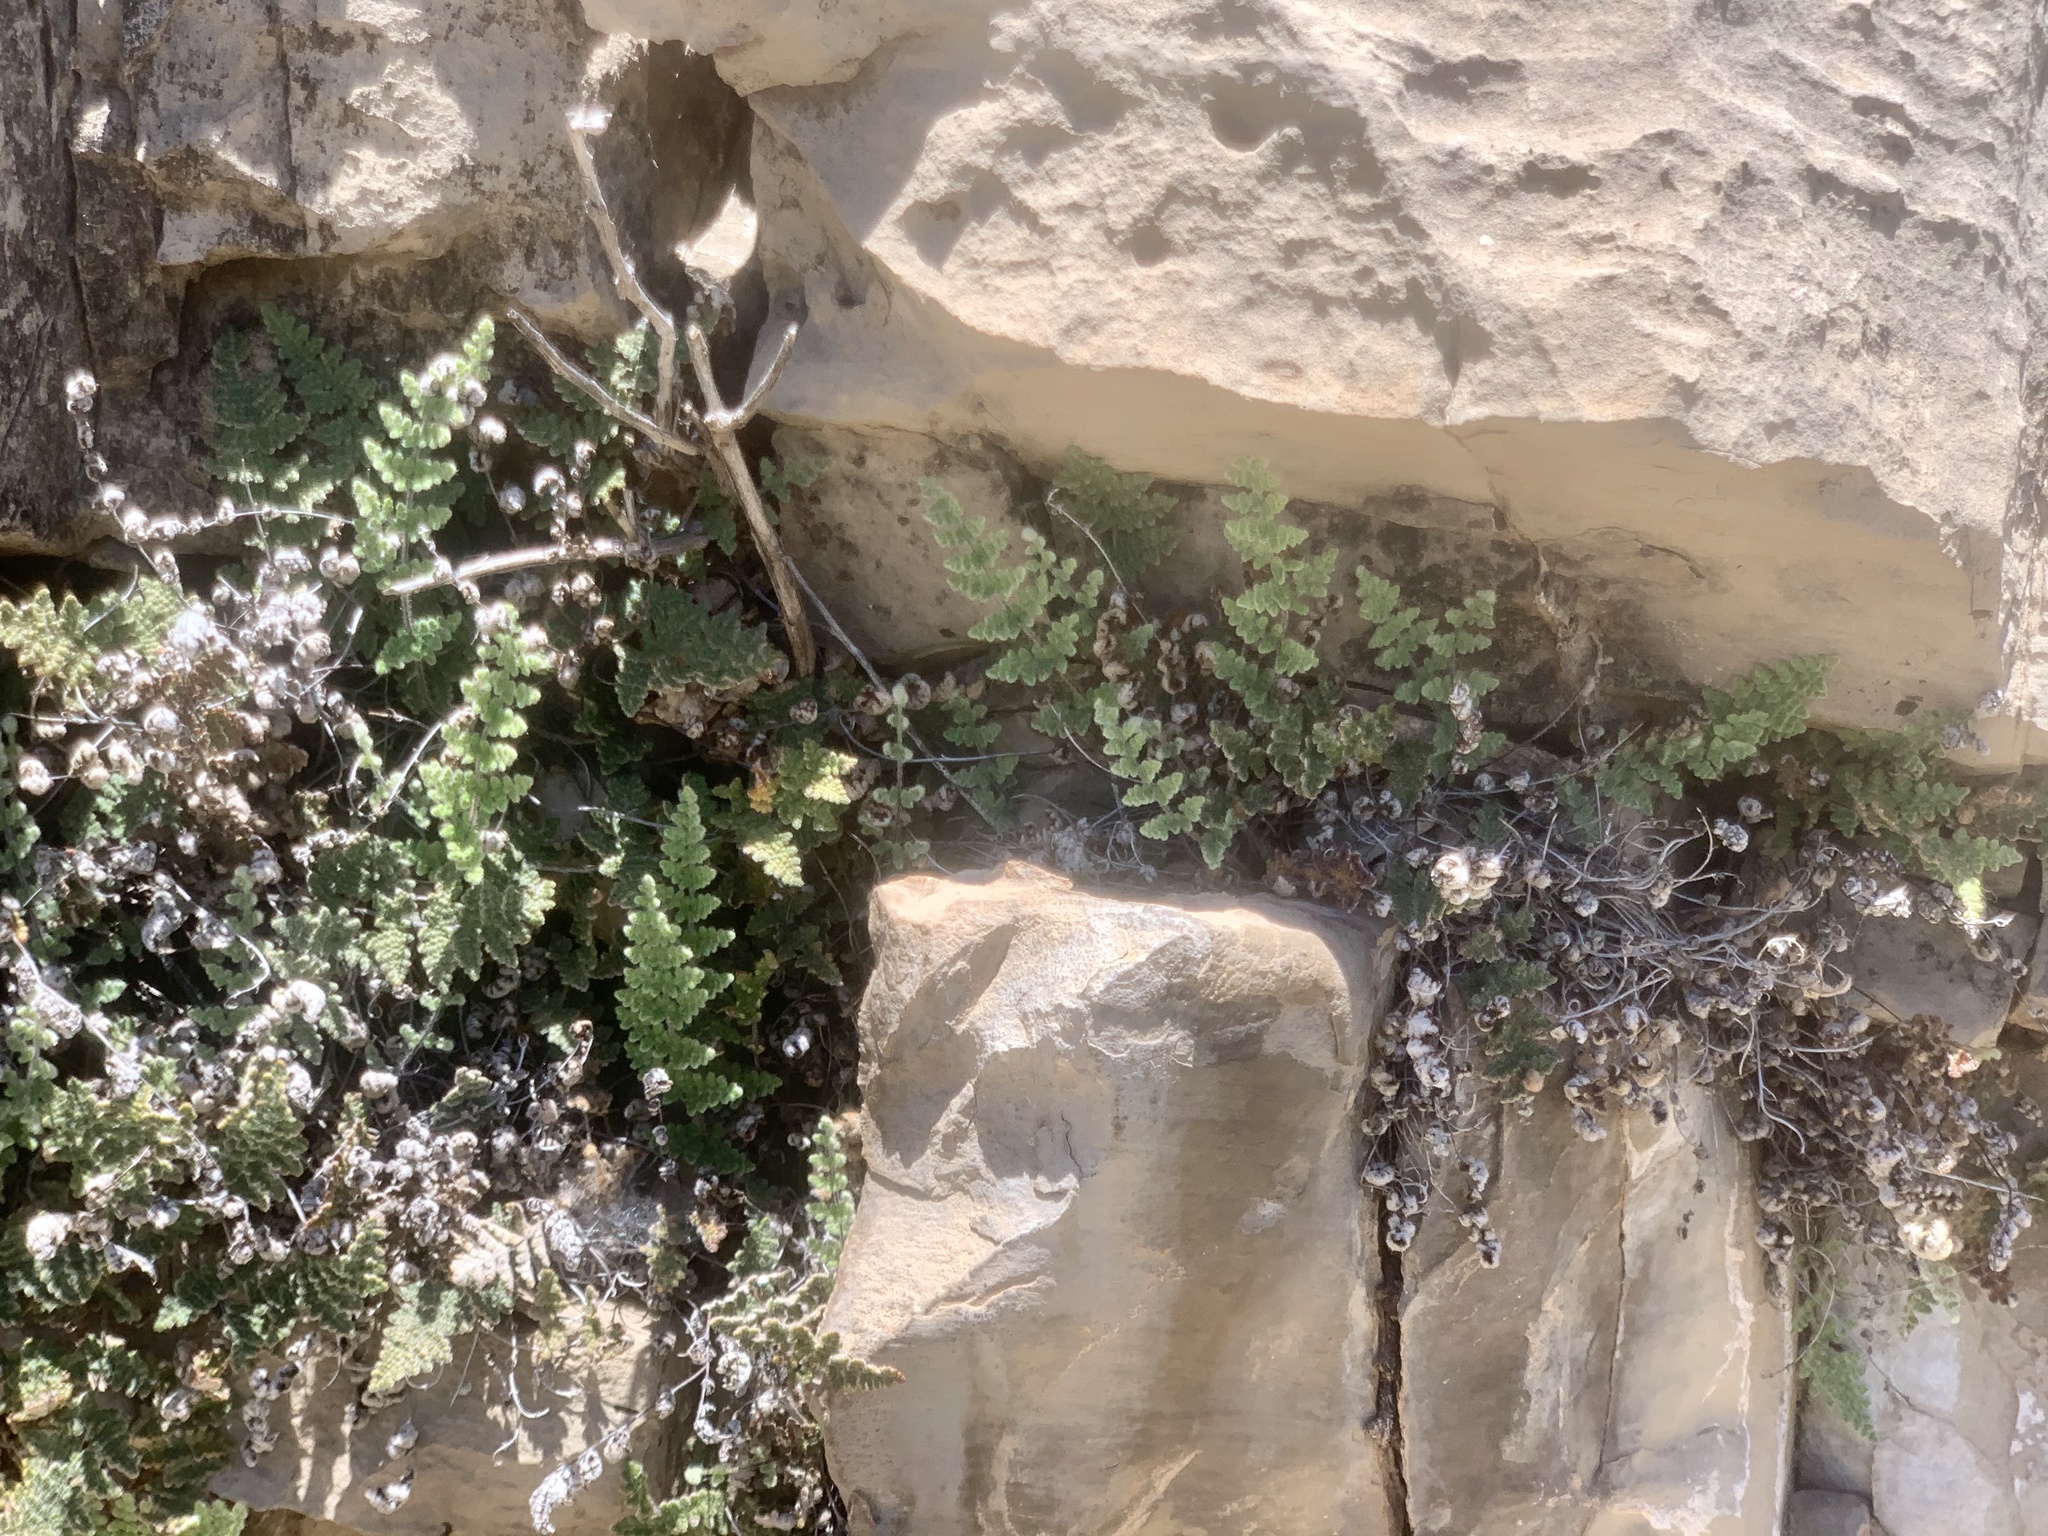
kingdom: Plantae
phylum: Tracheophyta
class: Polypodiopsida
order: Polypodiales
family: Pteridaceae
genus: Myriopteris
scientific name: Myriopteris gracilis
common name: Fee's lip fern
